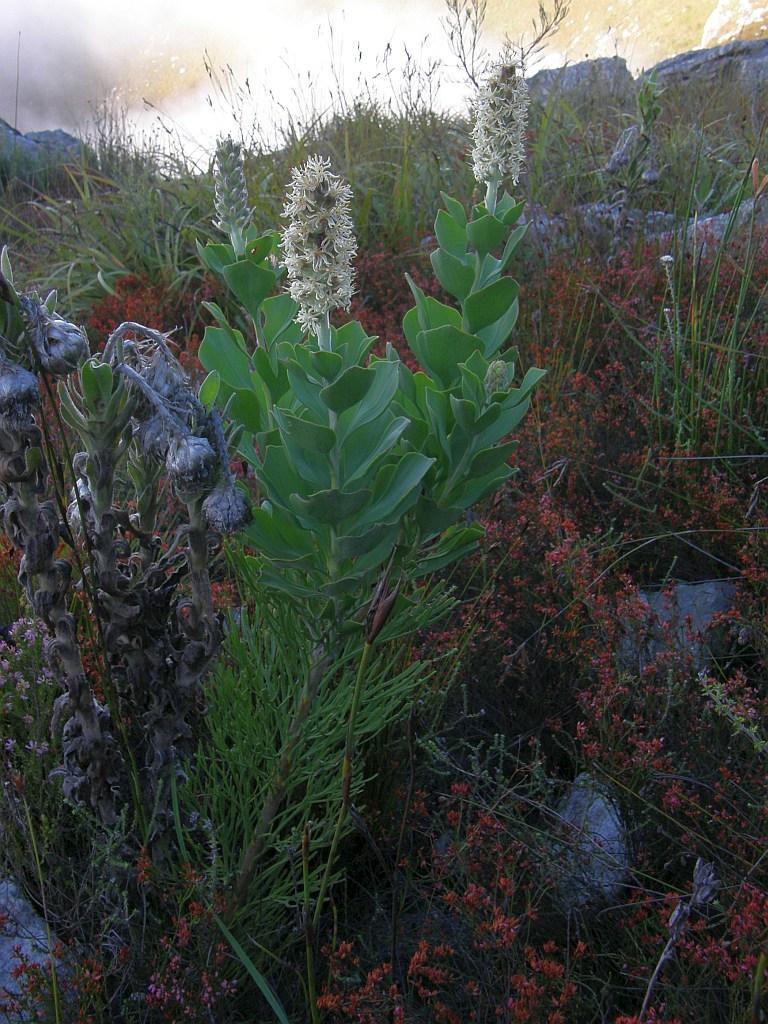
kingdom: Plantae
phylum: Tracheophyta
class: Magnoliopsida
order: Proteales
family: Proteaceae
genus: Paranomus
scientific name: Paranomus sceptrum-gustavianus
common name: King gustav's sceptre
